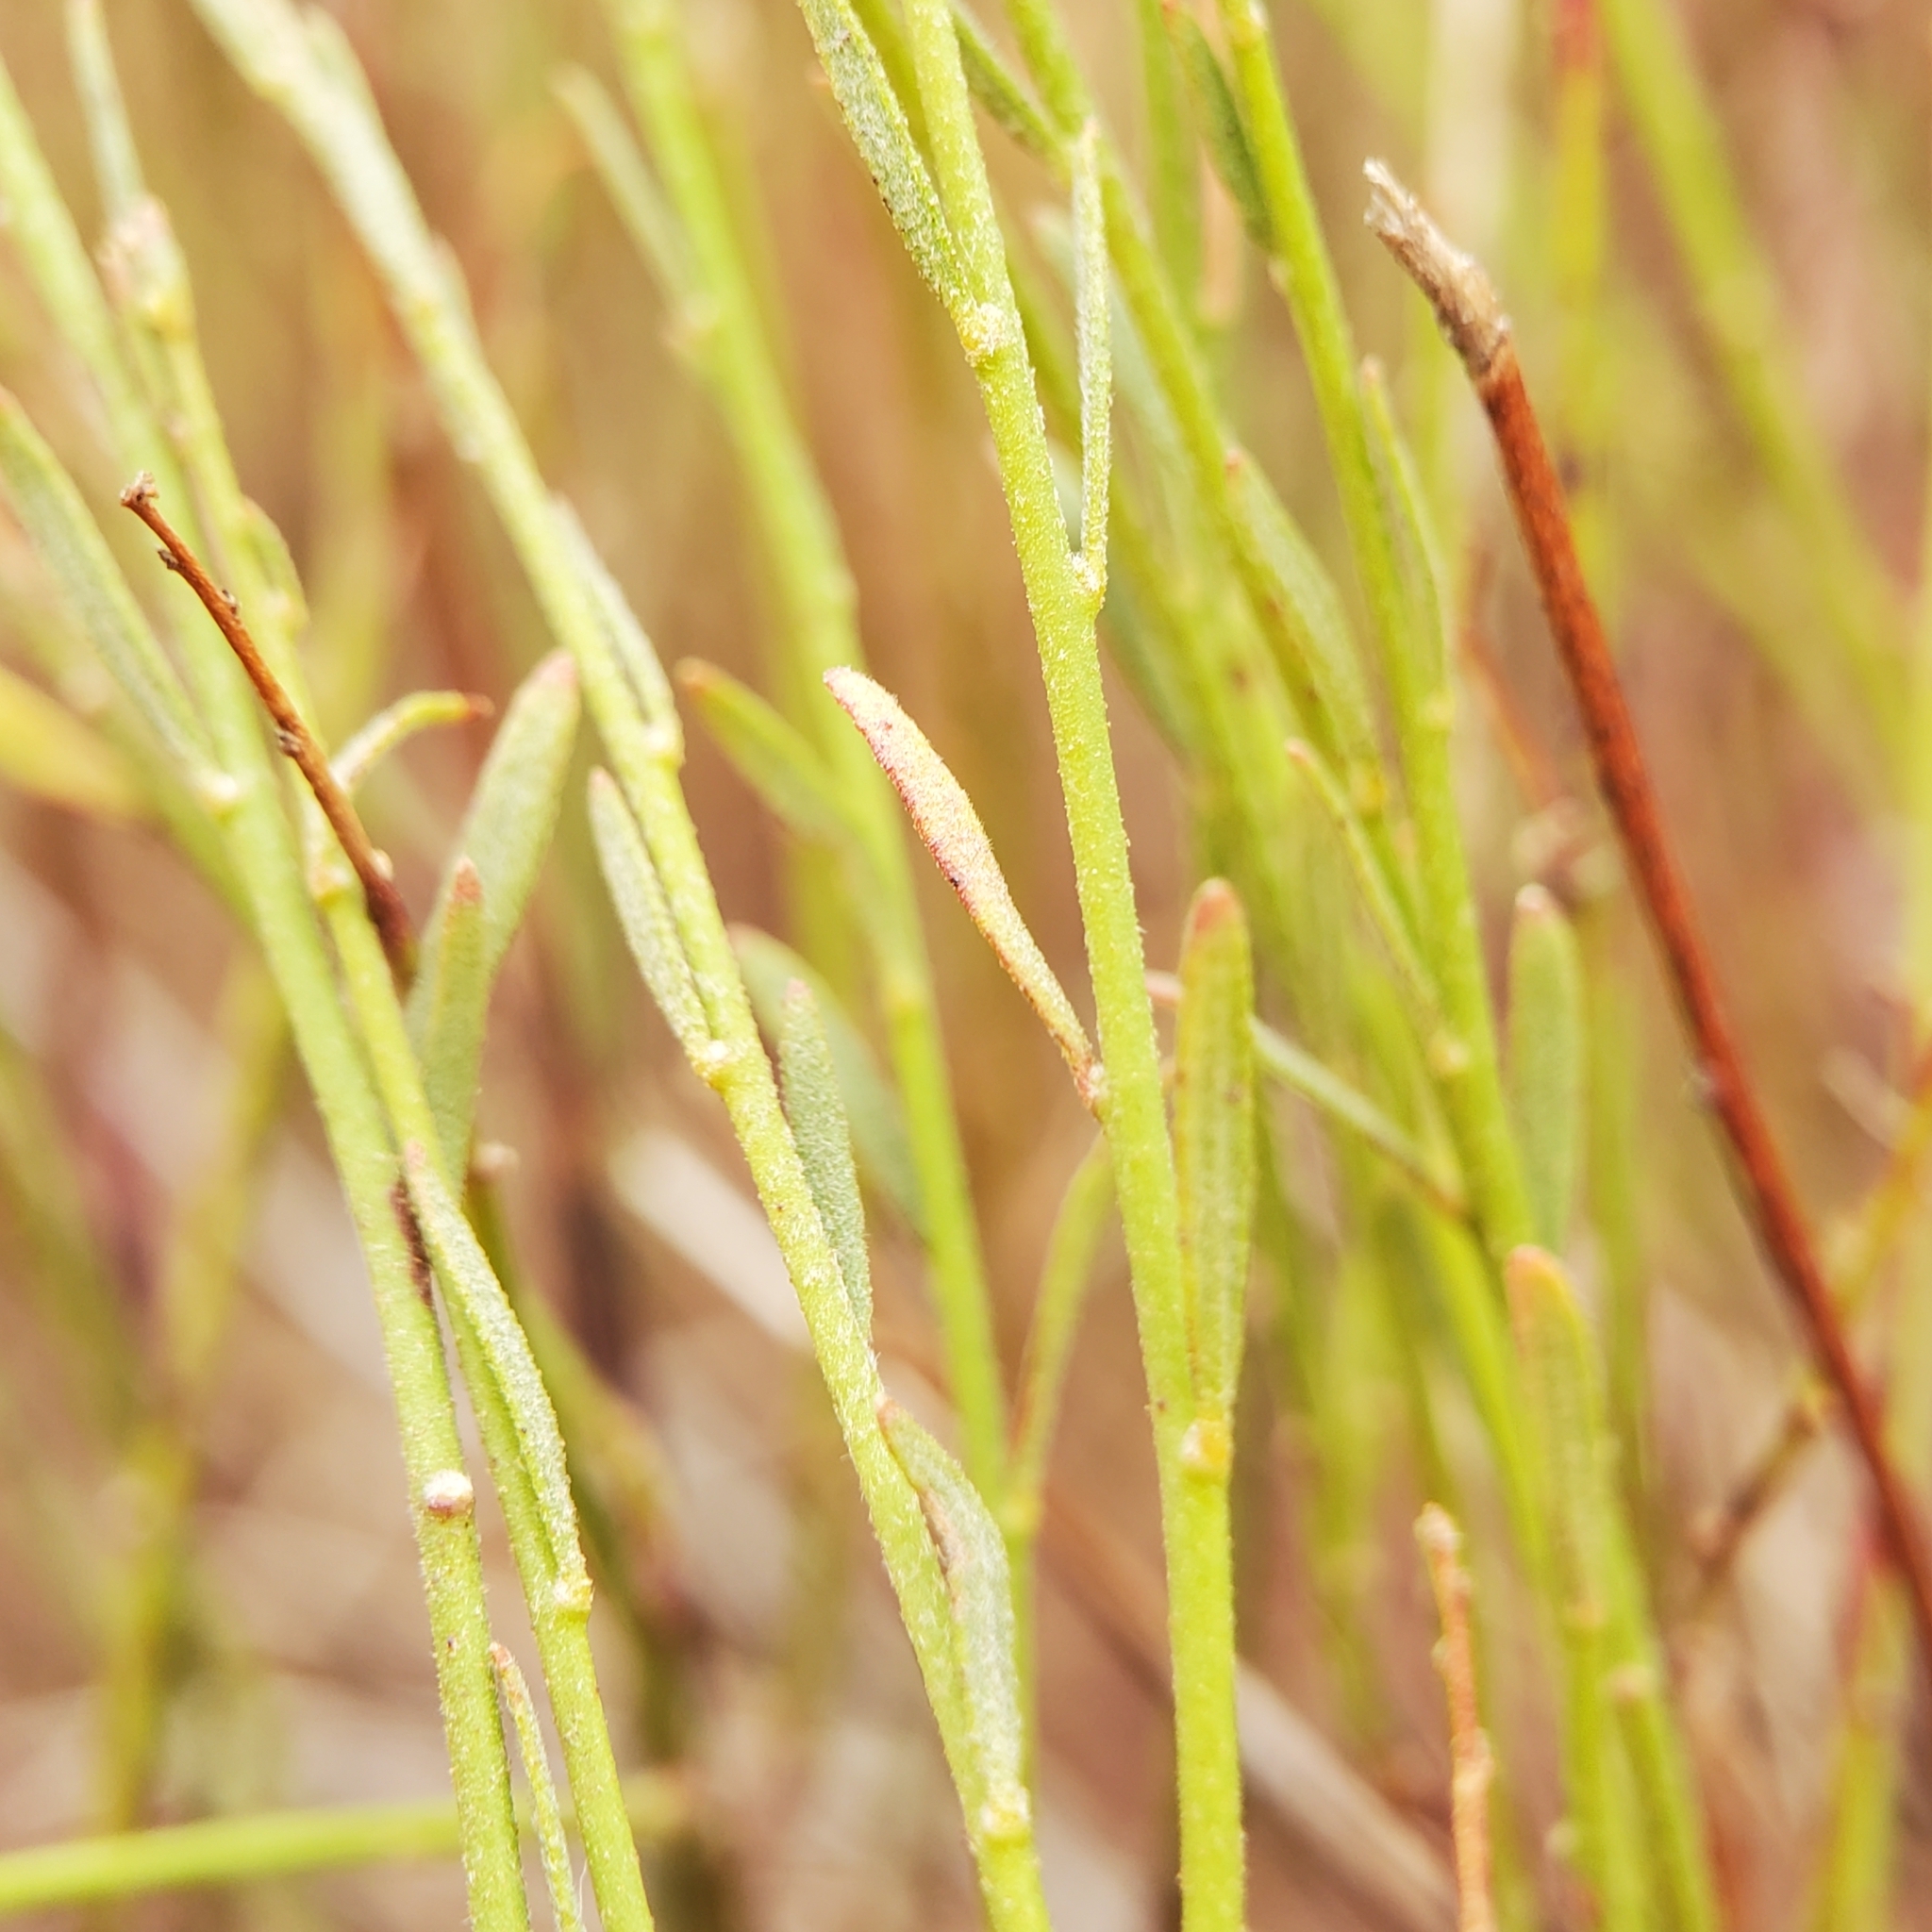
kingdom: Plantae
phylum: Tracheophyta
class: Magnoliopsida
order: Malvales
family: Cistaceae
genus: Crocanthemum
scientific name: Crocanthemum scoparium
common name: Broom-rose
